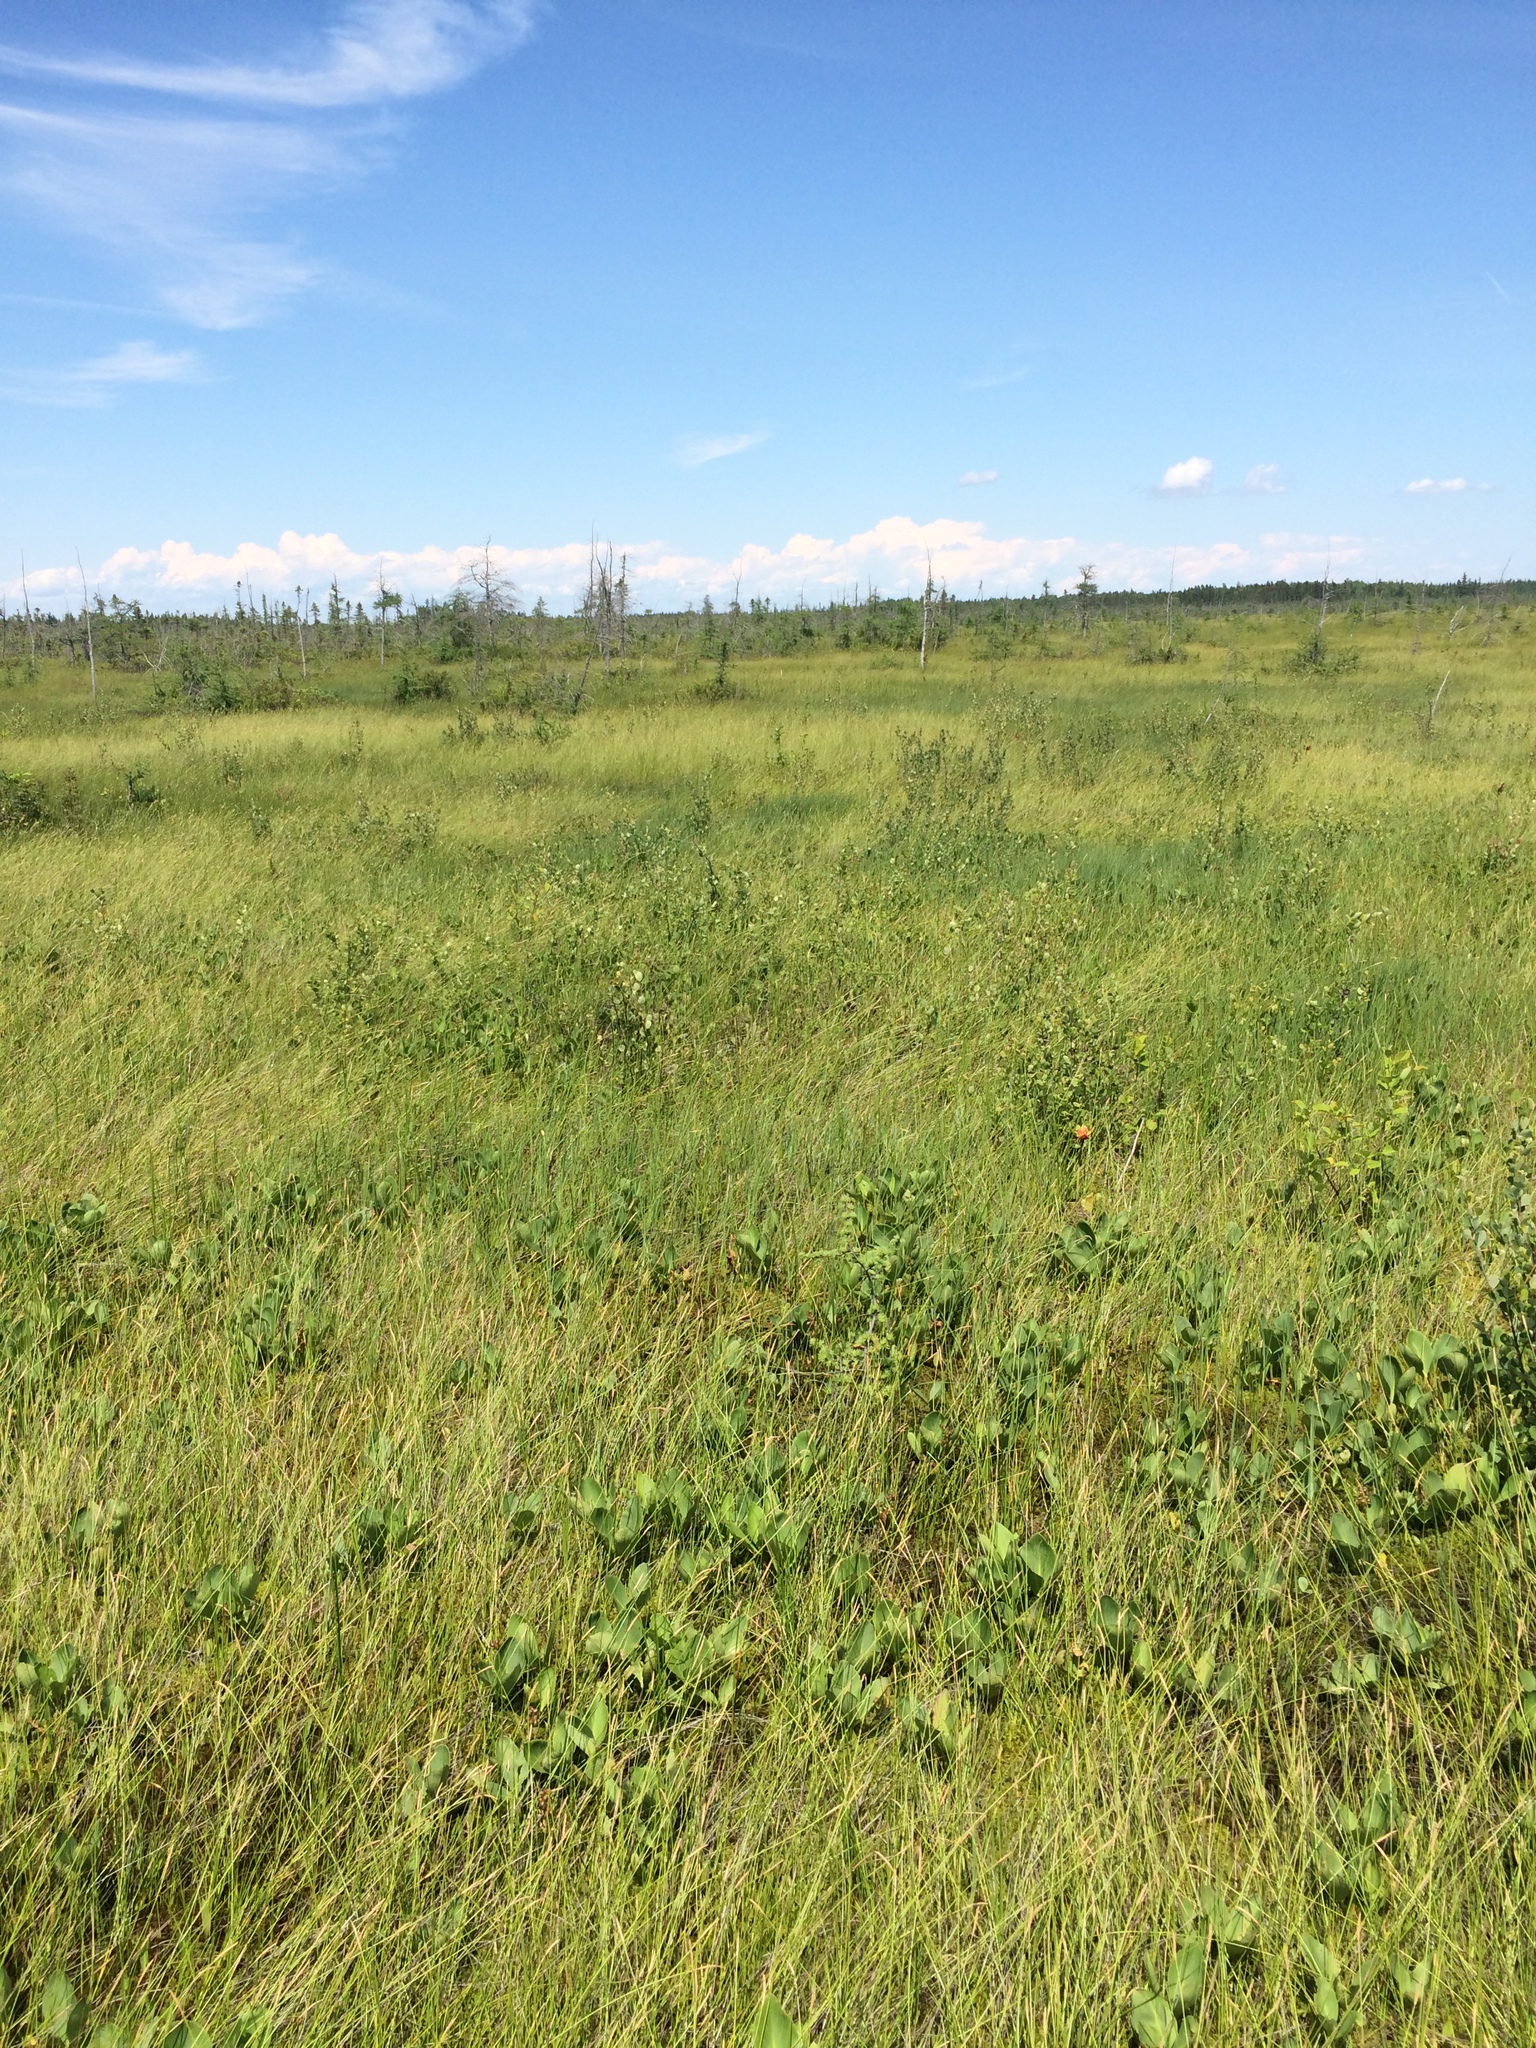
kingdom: Plantae
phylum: Tracheophyta
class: Magnoliopsida
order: Asterales
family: Menyanthaceae
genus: Menyanthes
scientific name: Menyanthes trifoliata
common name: Bogbean
